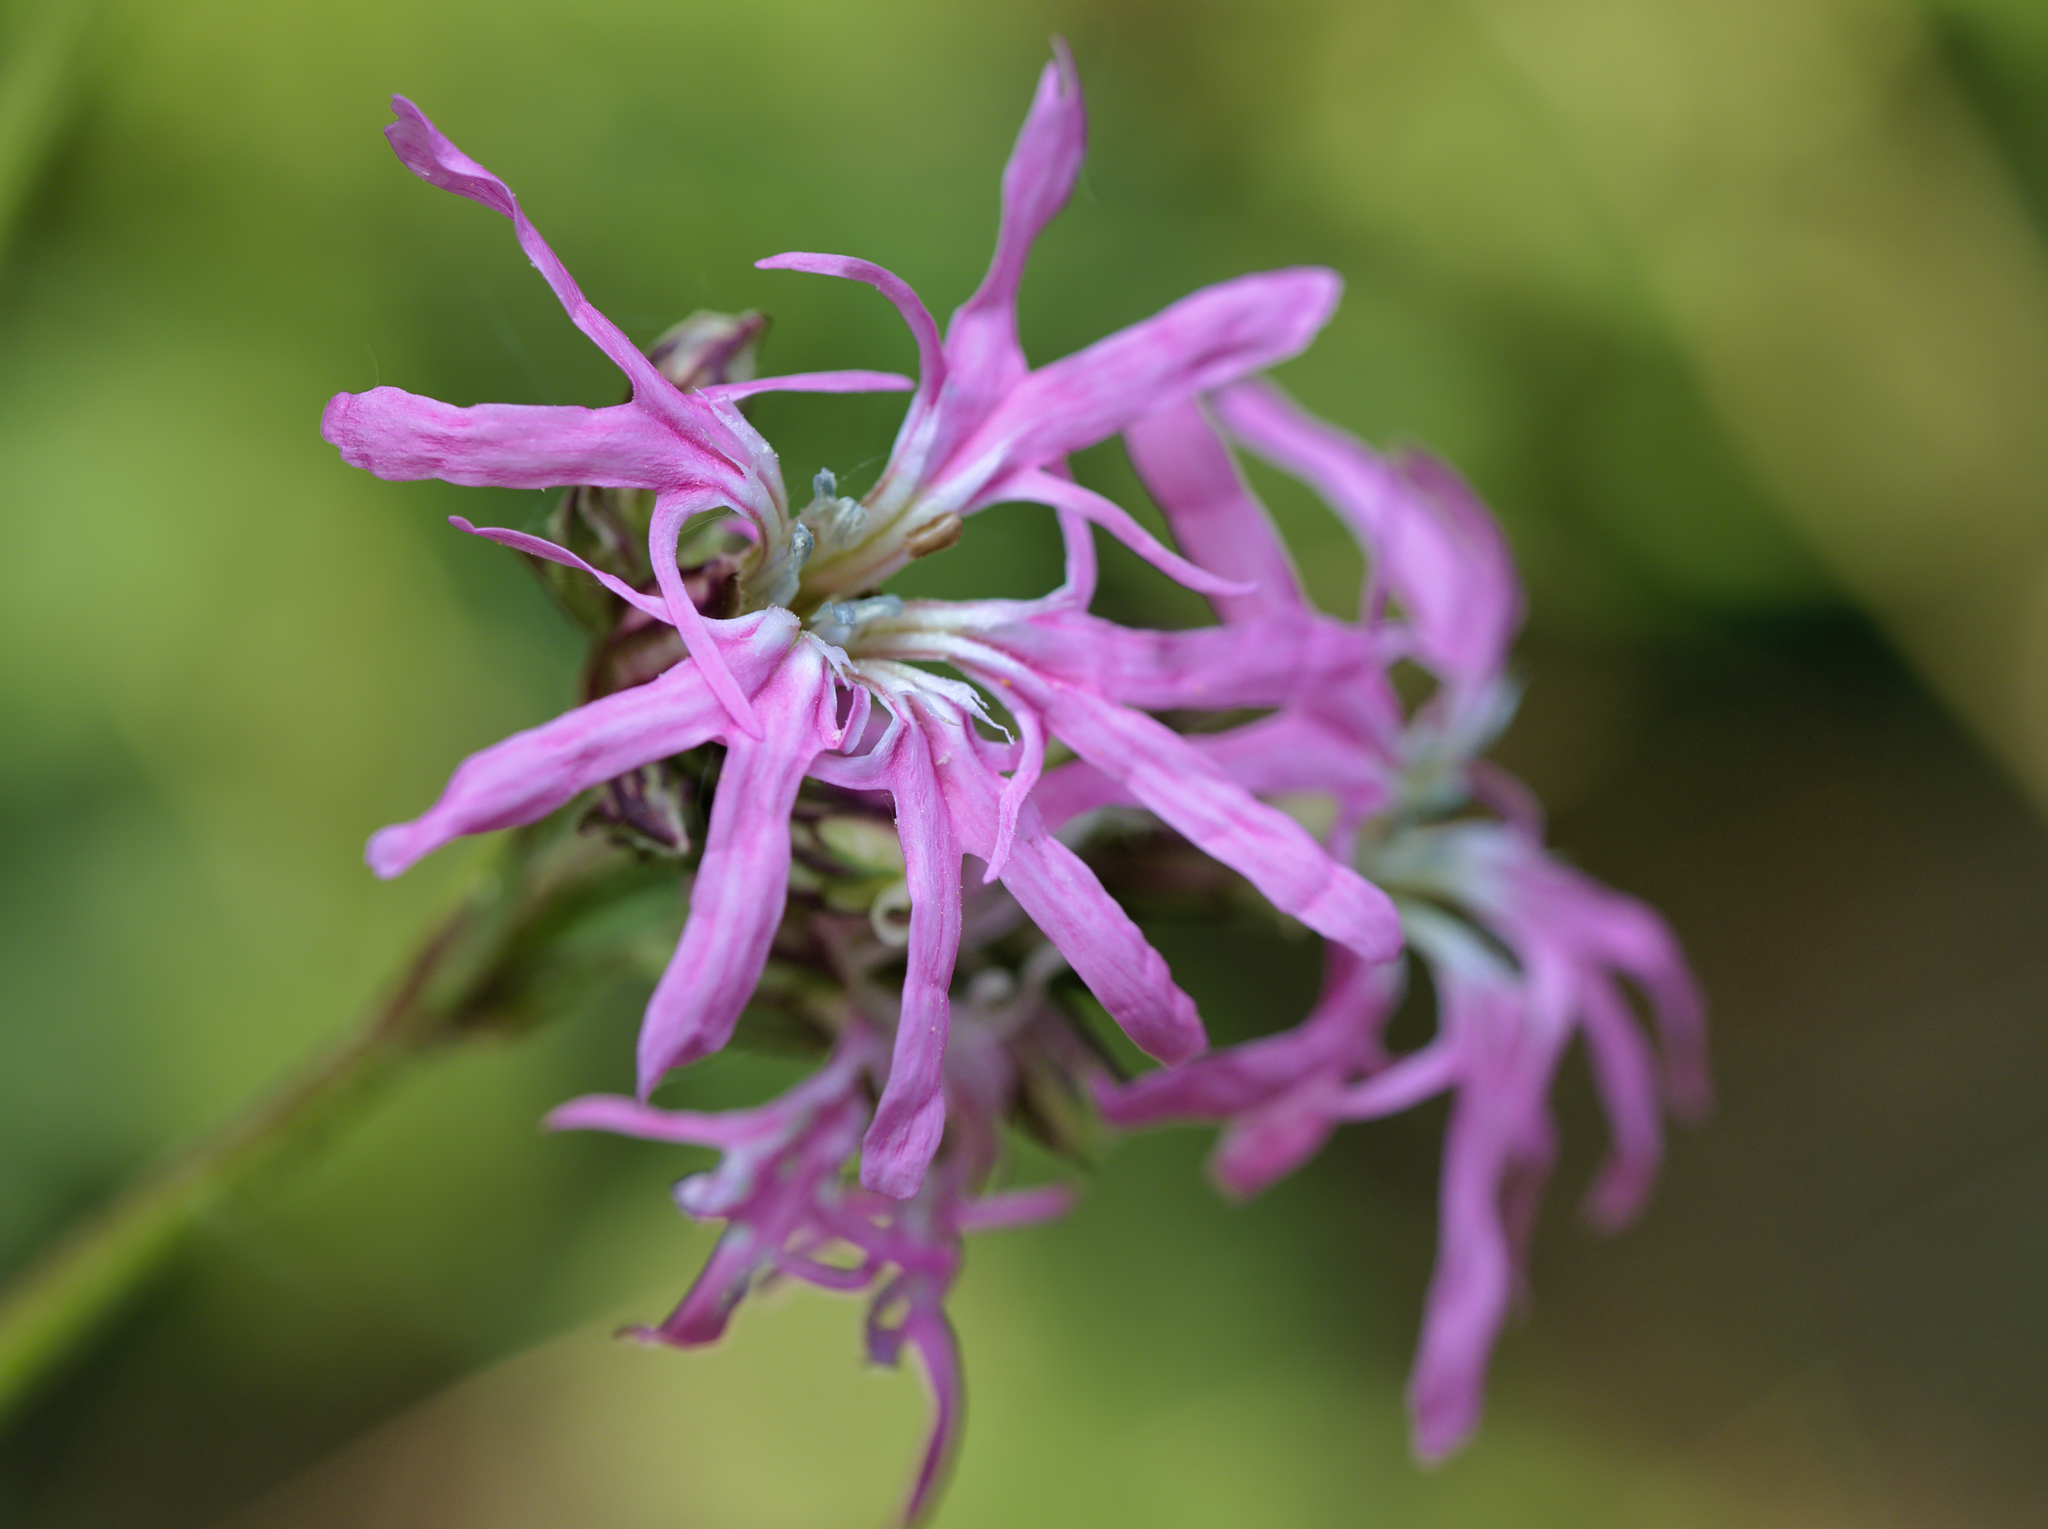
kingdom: Plantae
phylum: Tracheophyta
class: Magnoliopsida
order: Caryophyllales
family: Caryophyllaceae
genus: Silene
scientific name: Silene flos-cuculi
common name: Ragged-robin
